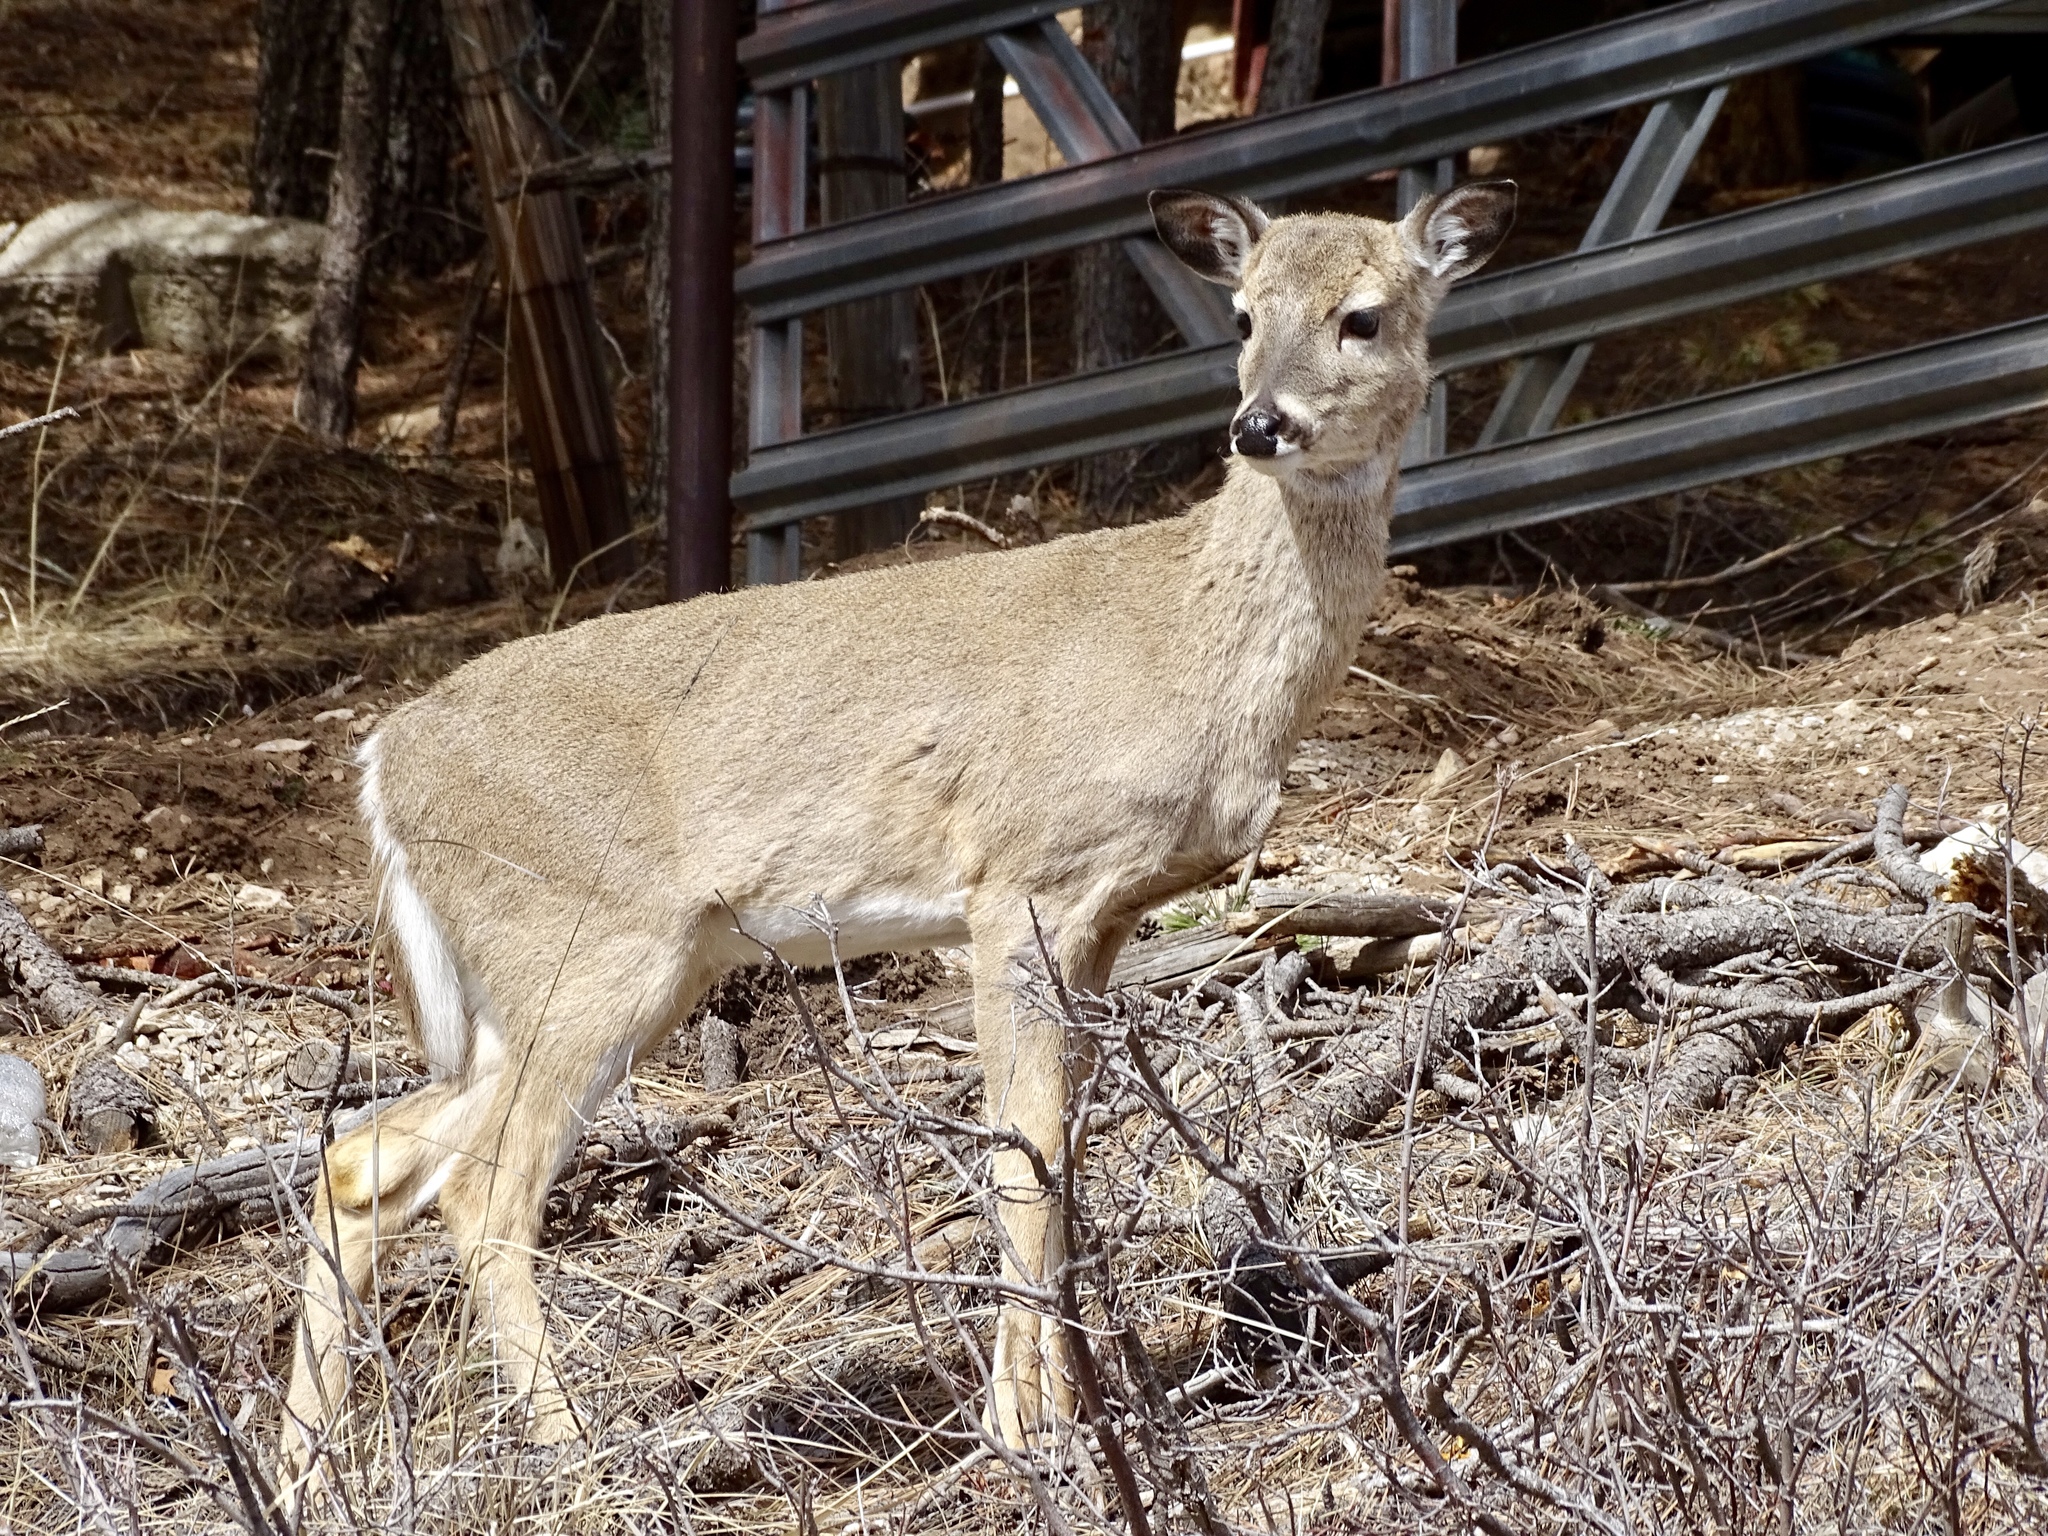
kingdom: Animalia
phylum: Chordata
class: Mammalia
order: Artiodactyla
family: Cervidae
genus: Odocoileus
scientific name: Odocoileus virginianus
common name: White-tailed deer
